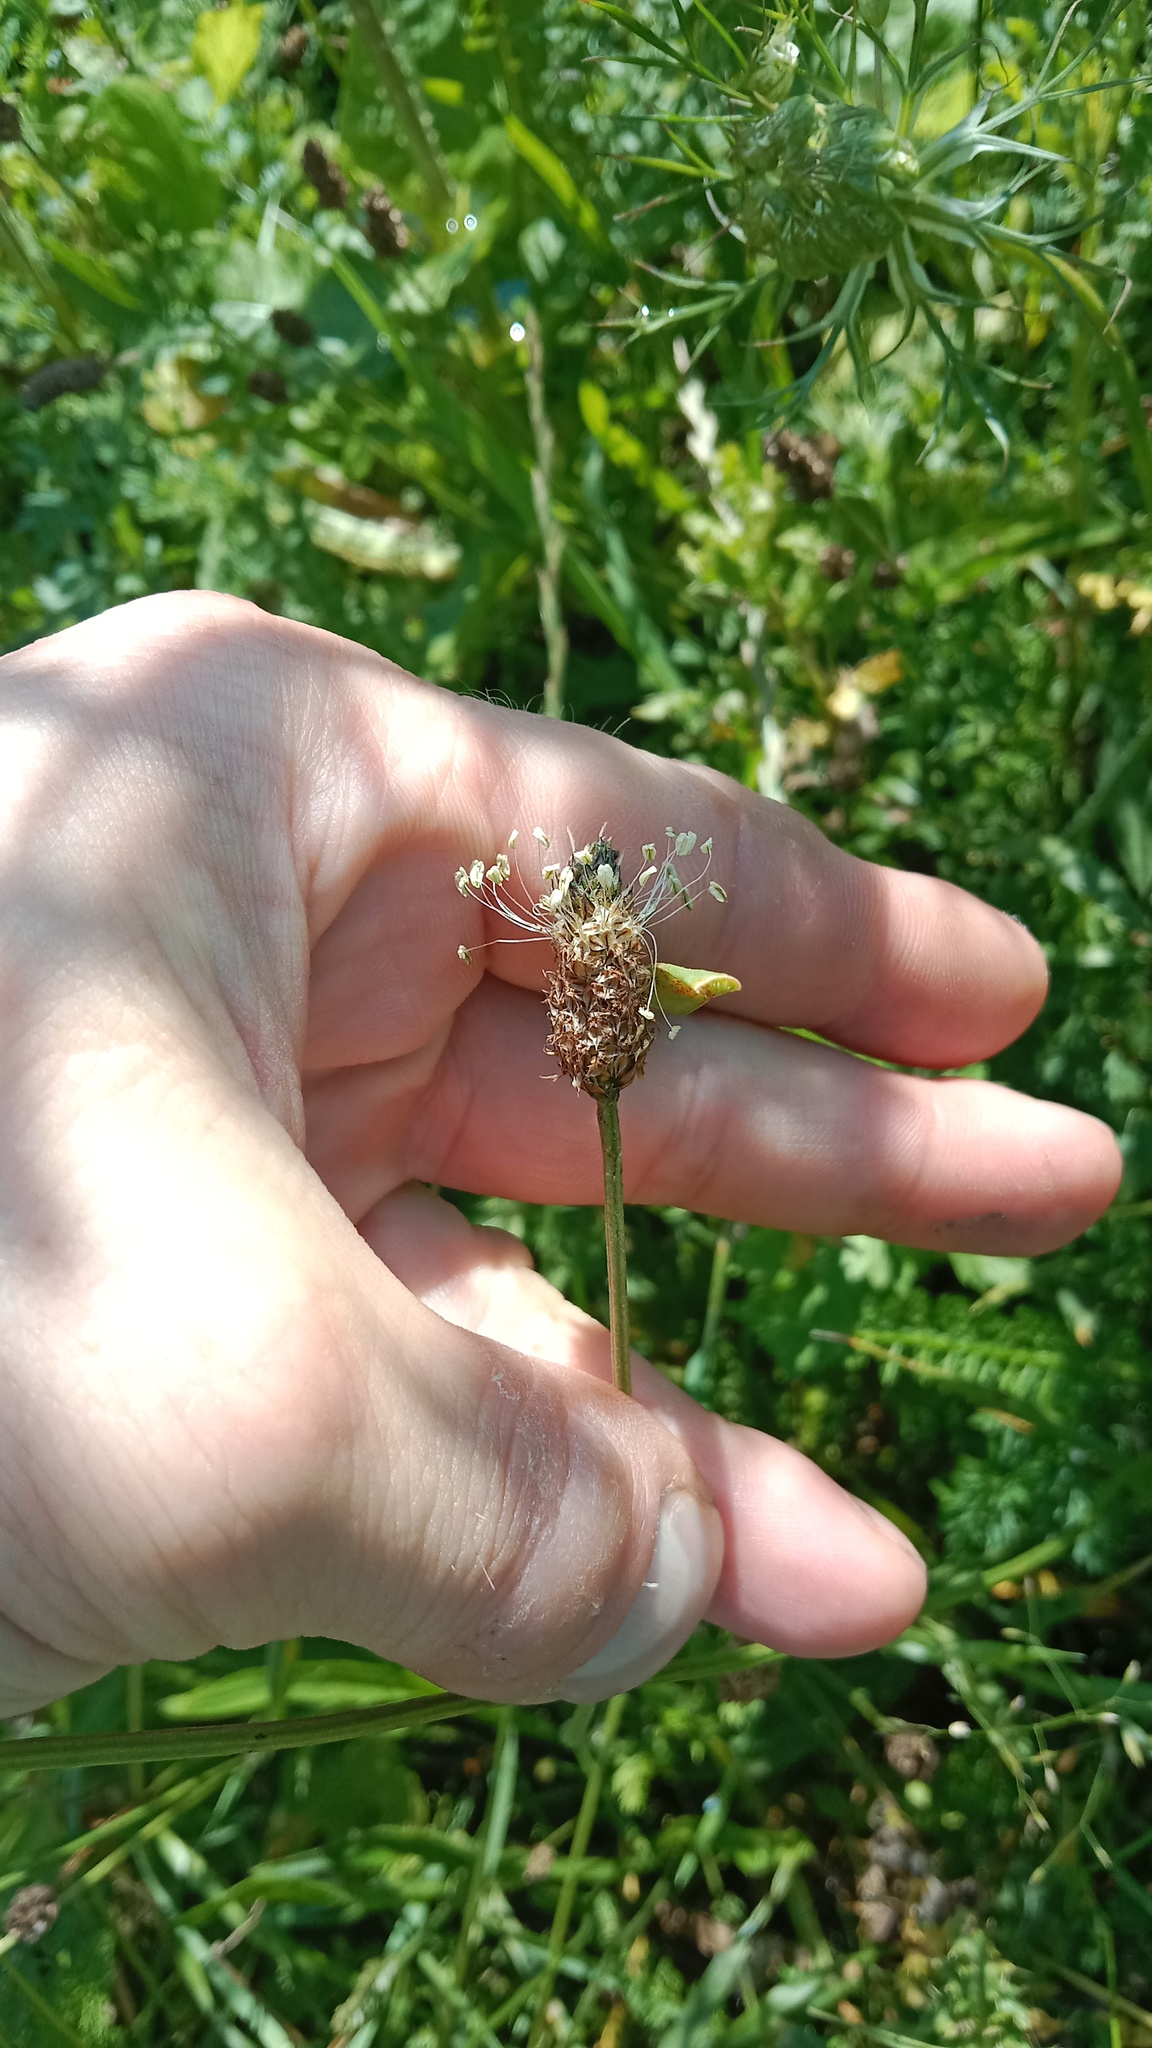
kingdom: Plantae
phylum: Tracheophyta
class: Magnoliopsida
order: Lamiales
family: Plantaginaceae
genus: Plantago
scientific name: Plantago lanceolata
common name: Ribwort plantain
